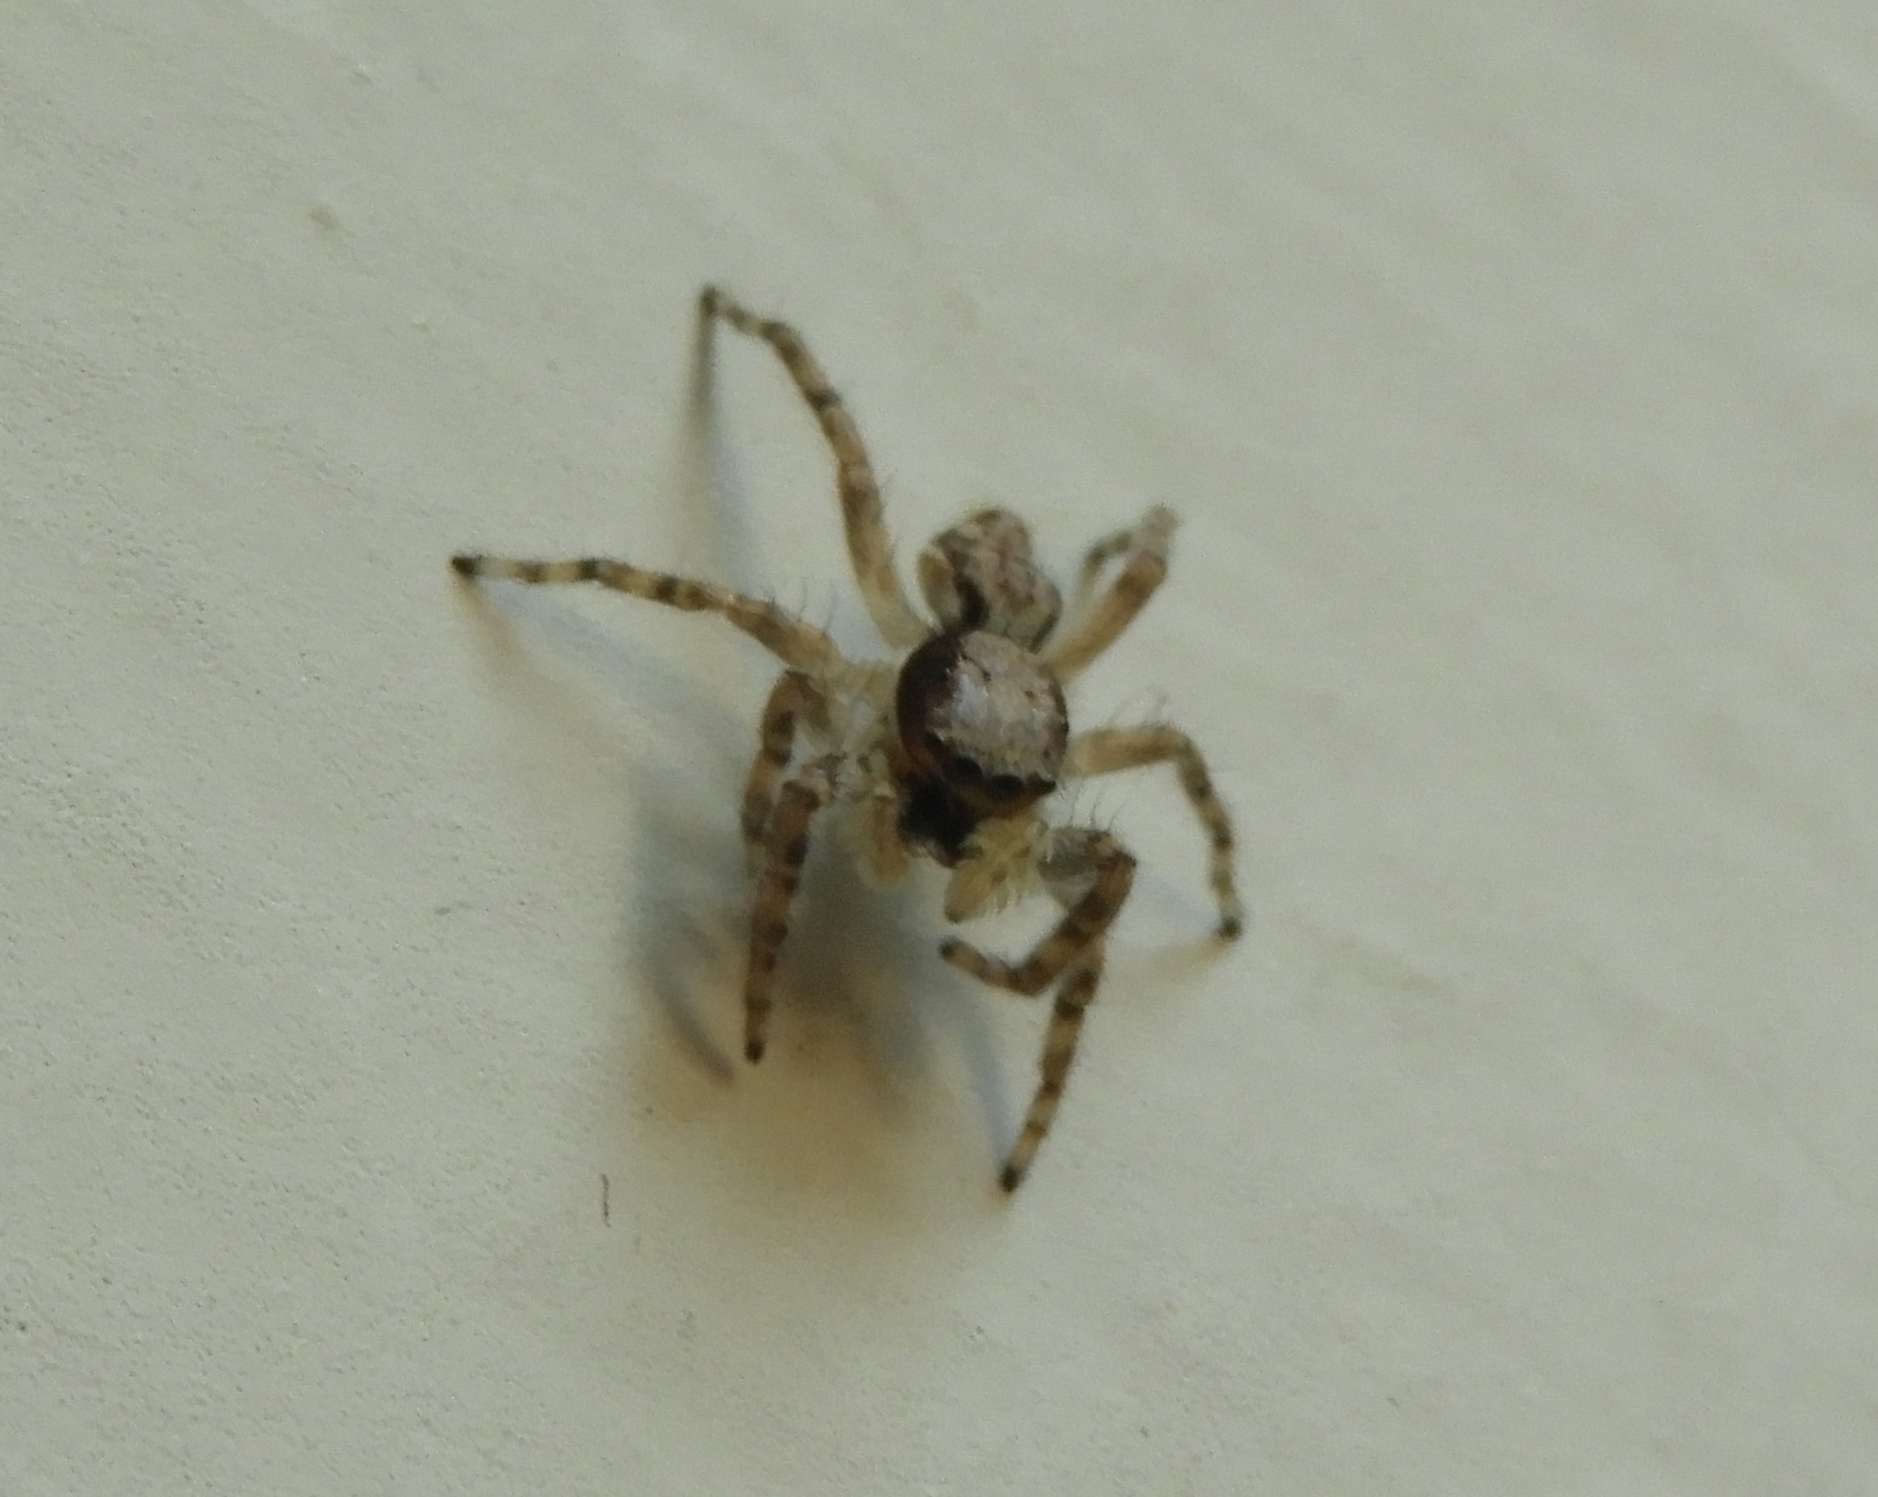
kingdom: Animalia
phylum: Arthropoda
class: Arachnida
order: Araneae
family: Salticidae
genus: Menemerus
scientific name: Menemerus bivittatus
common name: Gray wall jumper
